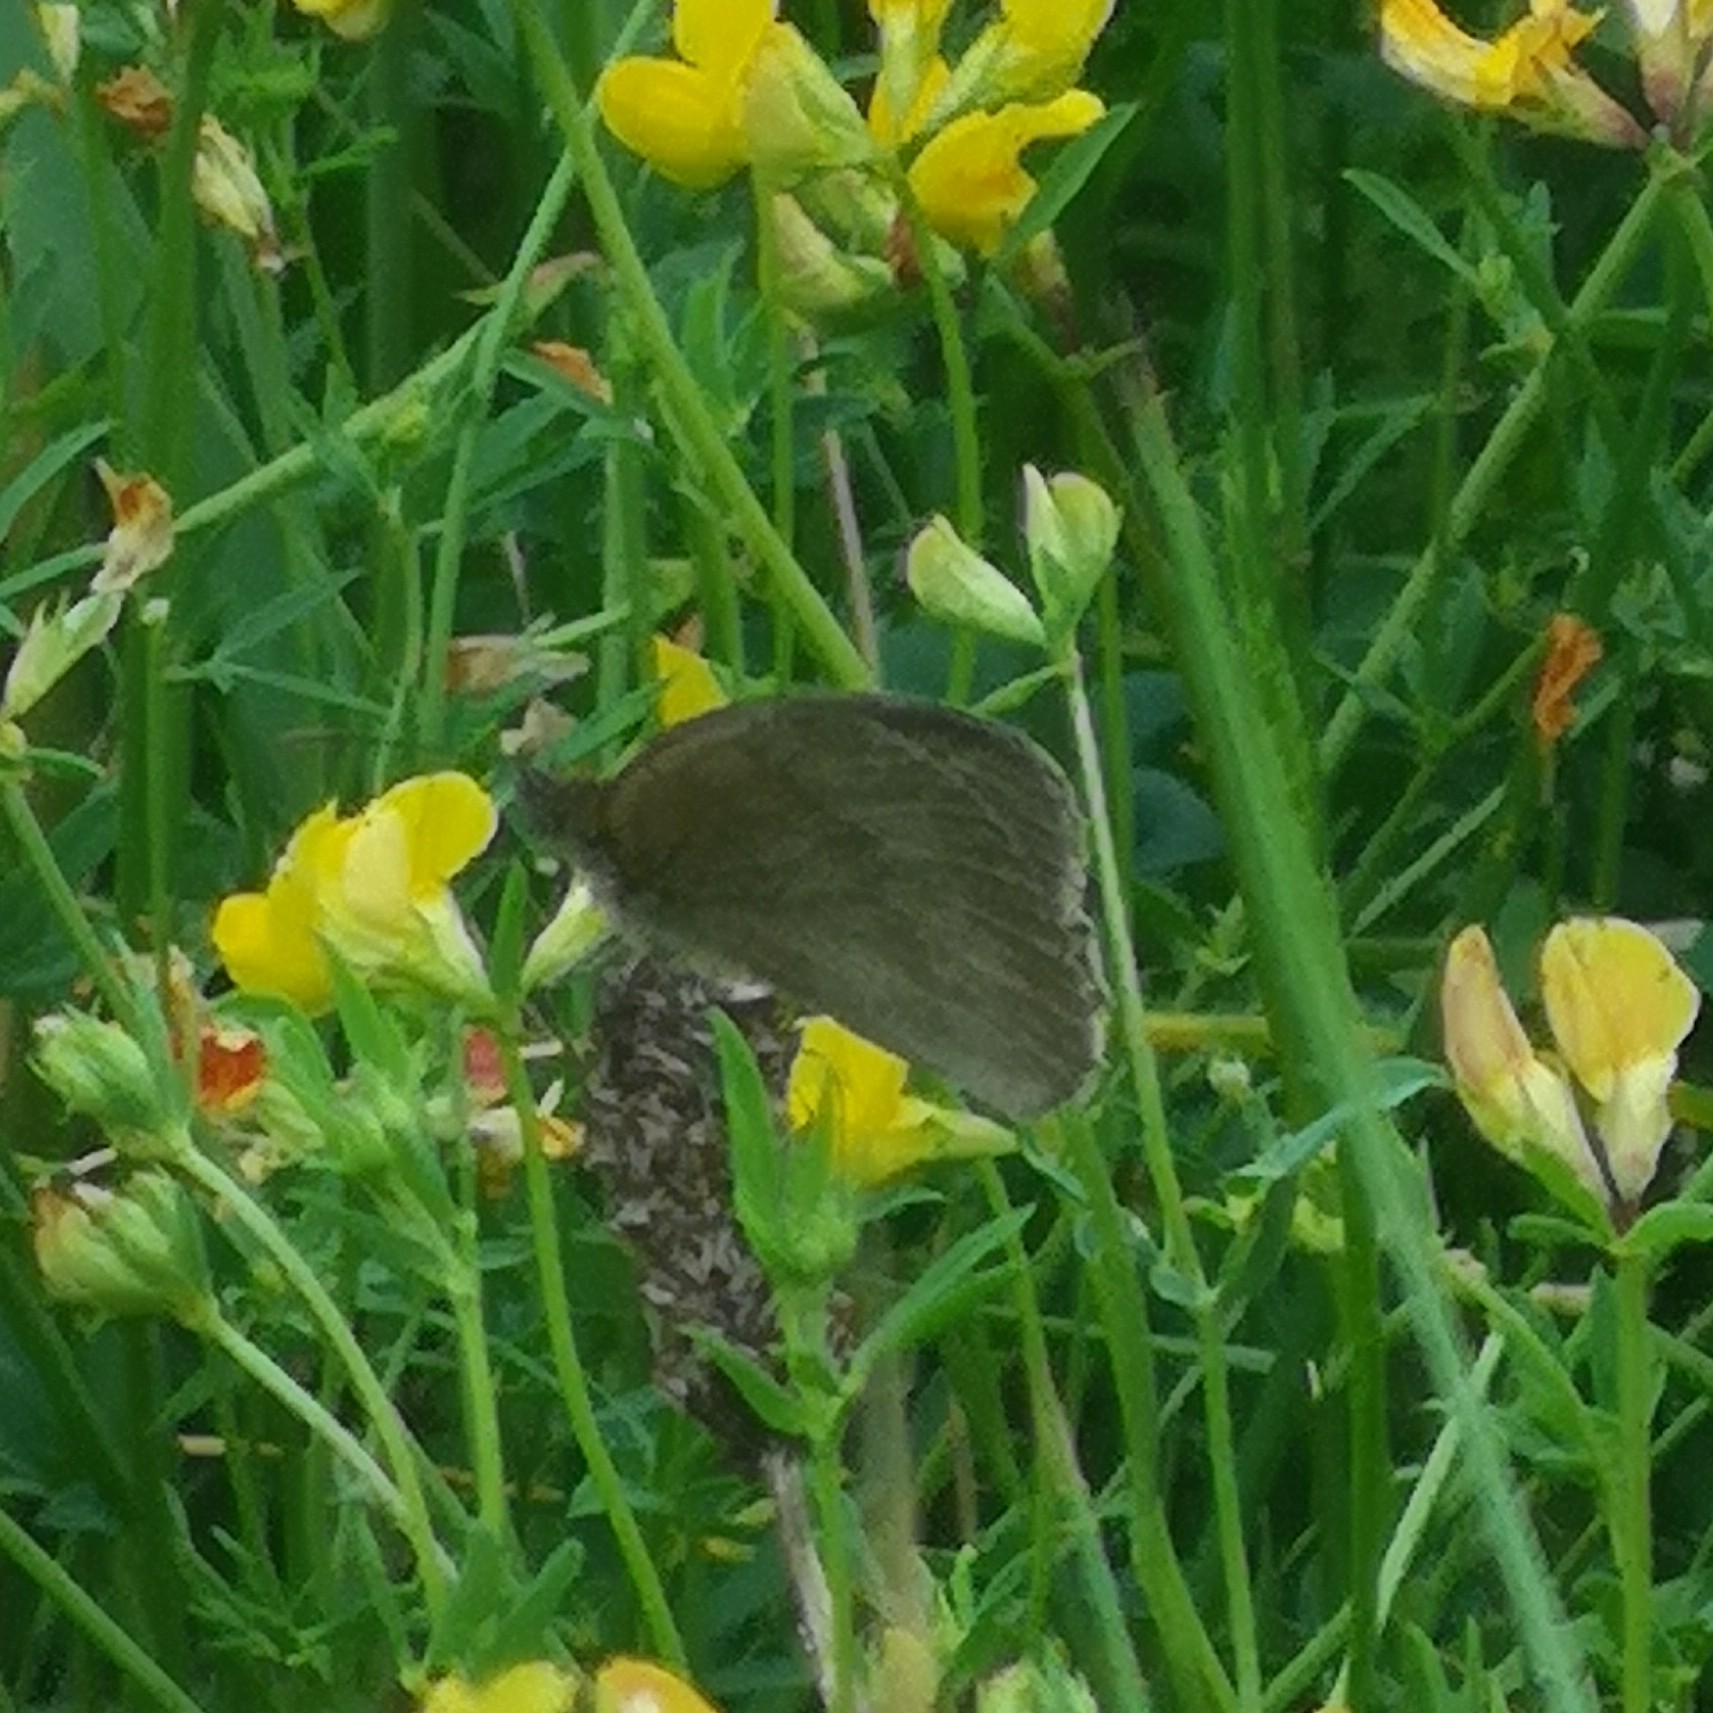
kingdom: Animalia
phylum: Arthropoda
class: Insecta
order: Lepidoptera
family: Nymphalidae
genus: Maniola
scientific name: Maniola jurtina
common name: Meadow brown
